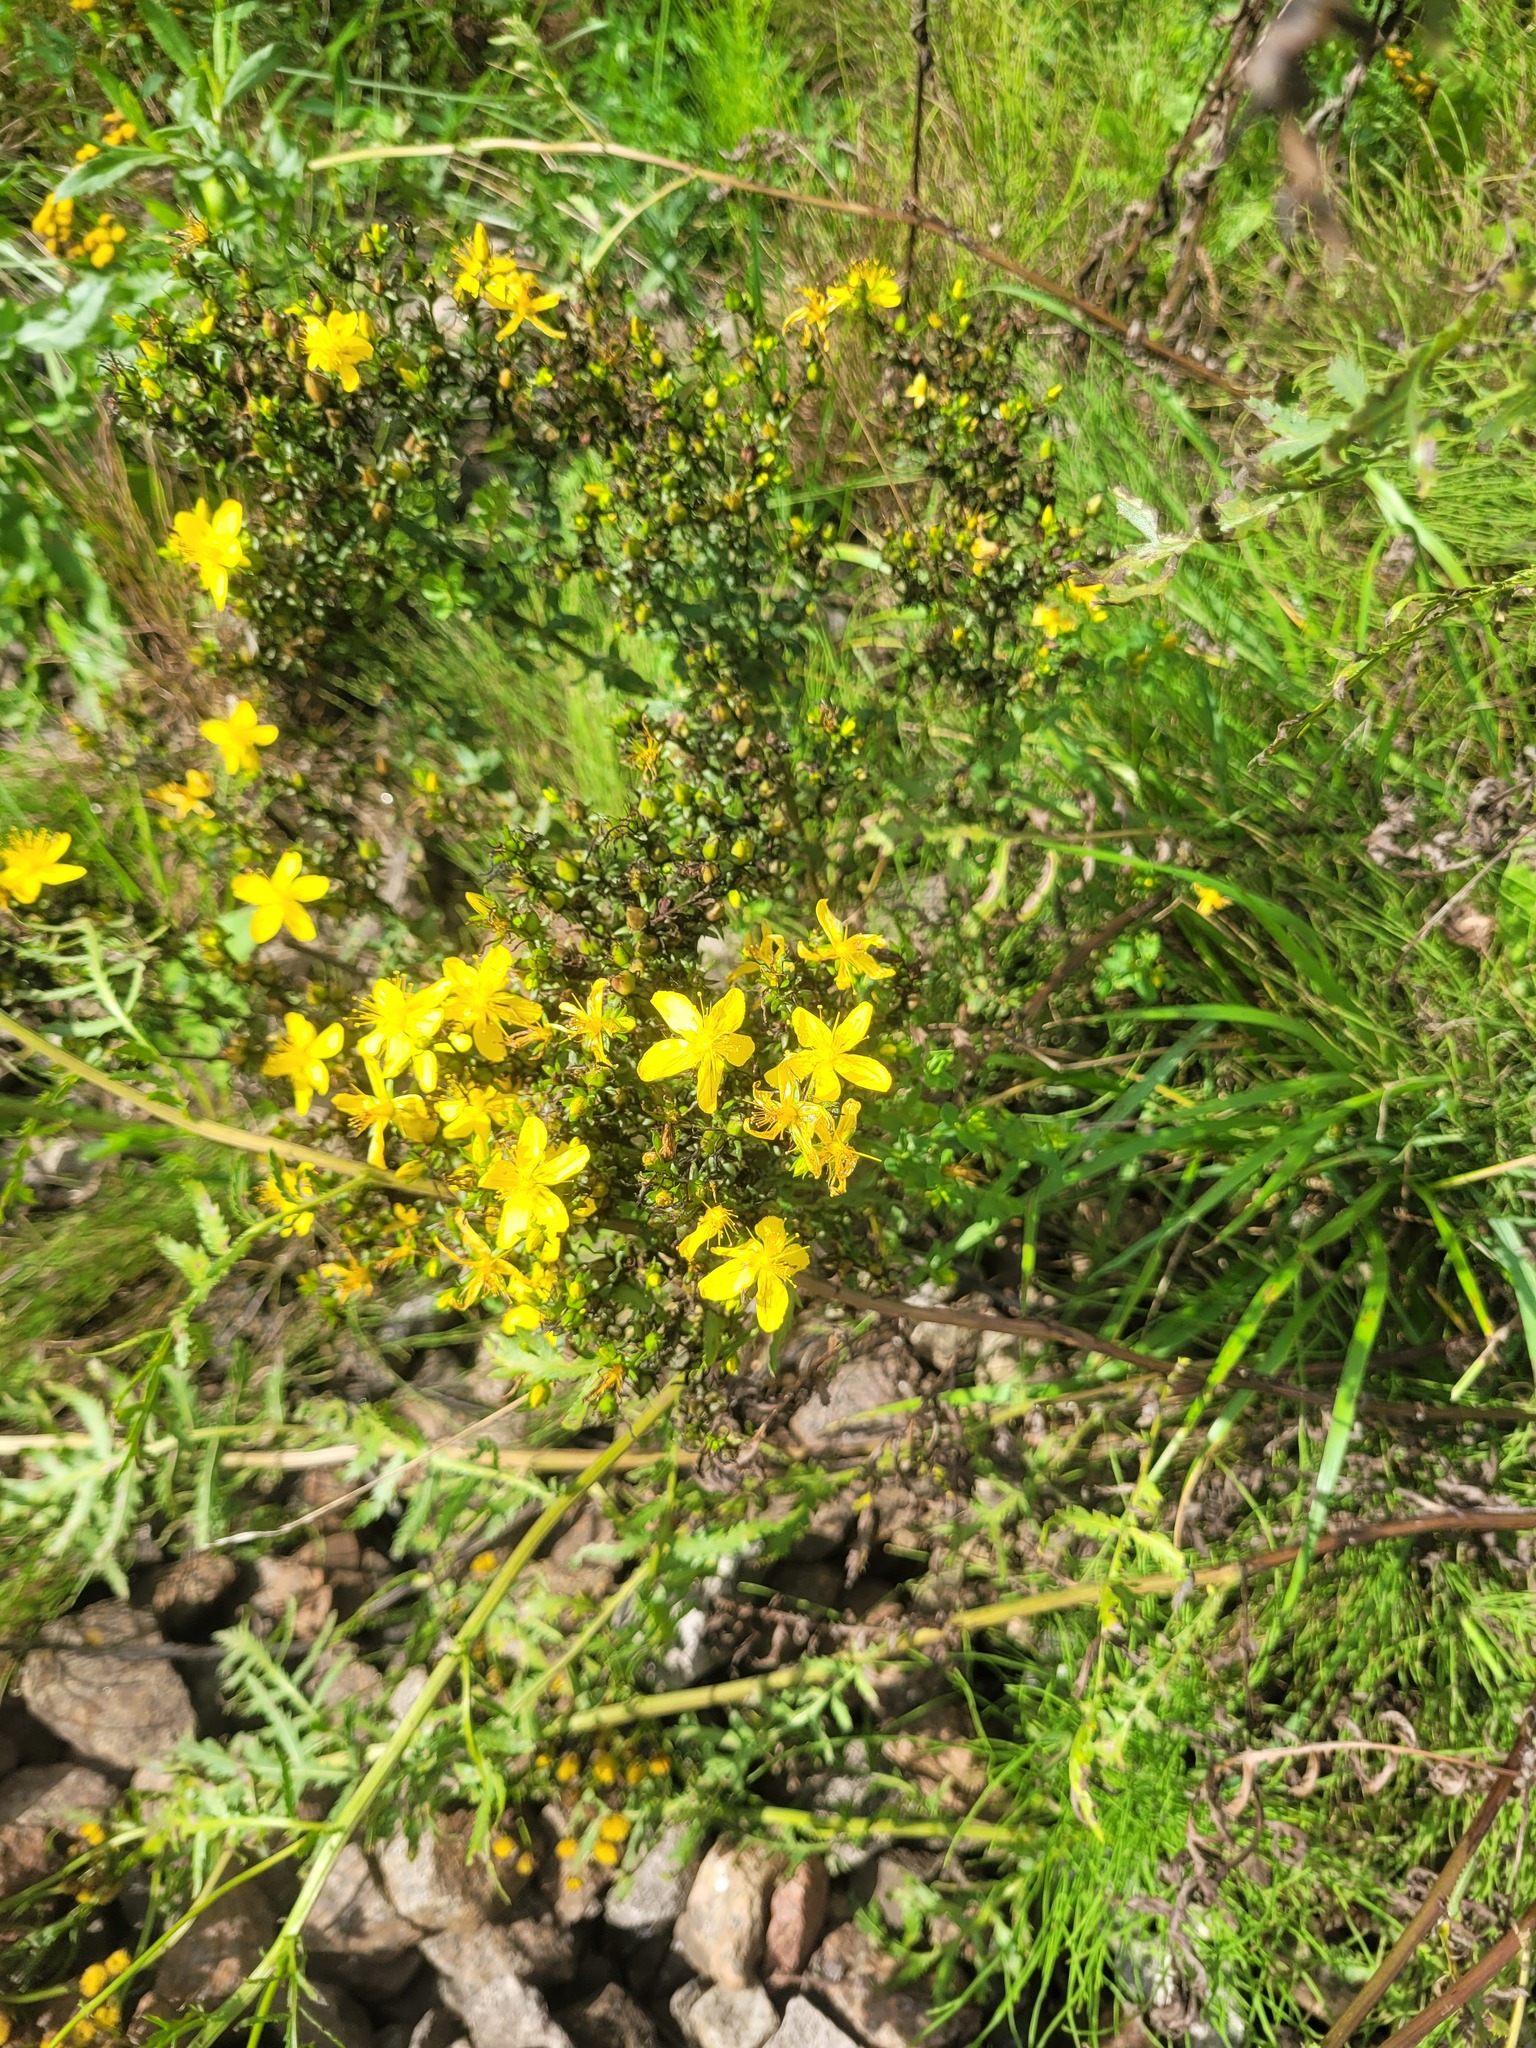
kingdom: Plantae
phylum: Tracheophyta
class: Magnoliopsida
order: Malpighiales
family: Hypericaceae
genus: Hypericum
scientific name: Hypericum perforatum
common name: Common st. johnswort
